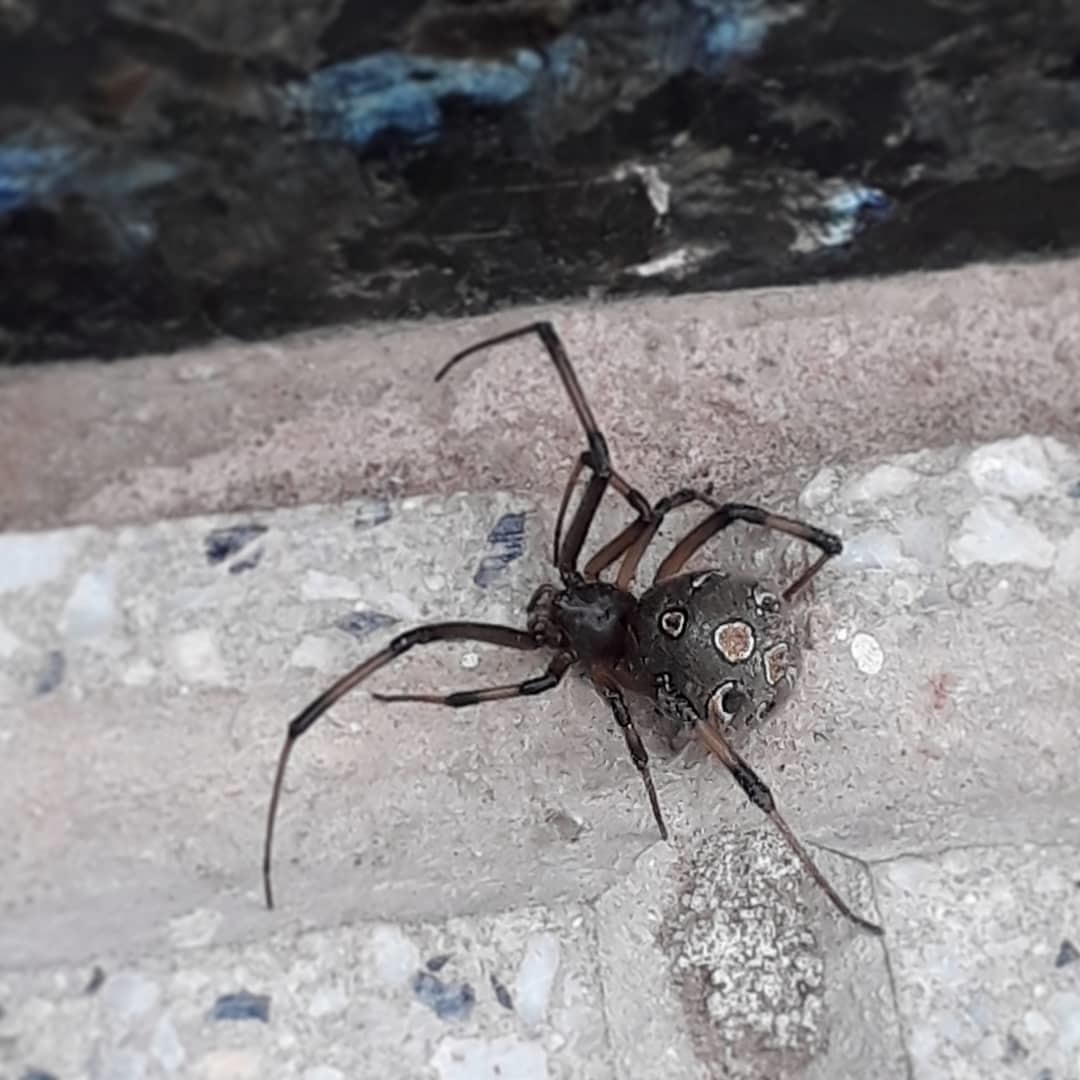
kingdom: Animalia
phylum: Arthropoda
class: Arachnida
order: Araneae
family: Theridiidae
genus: Latrodectus
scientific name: Latrodectus geometricus
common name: Brown widow spider
